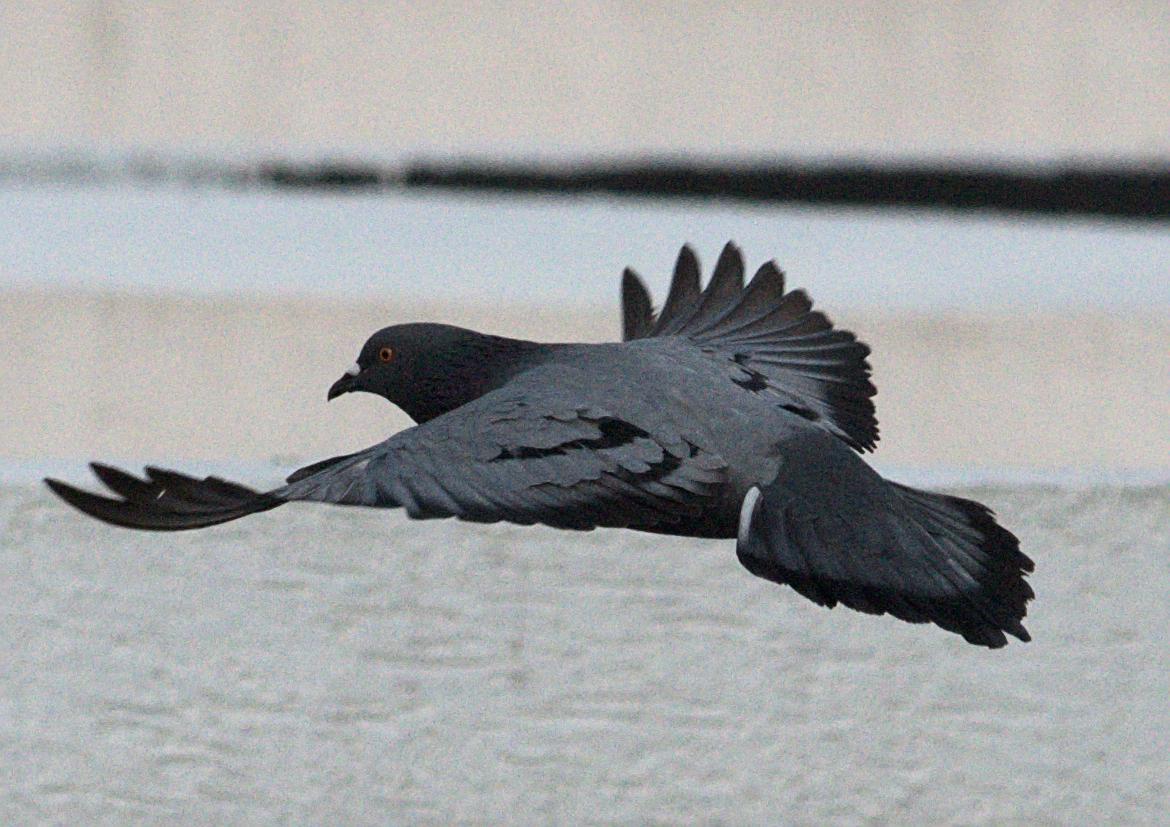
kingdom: Animalia
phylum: Chordata
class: Aves
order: Columbiformes
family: Columbidae
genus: Columba
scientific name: Columba livia
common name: Rock pigeon
